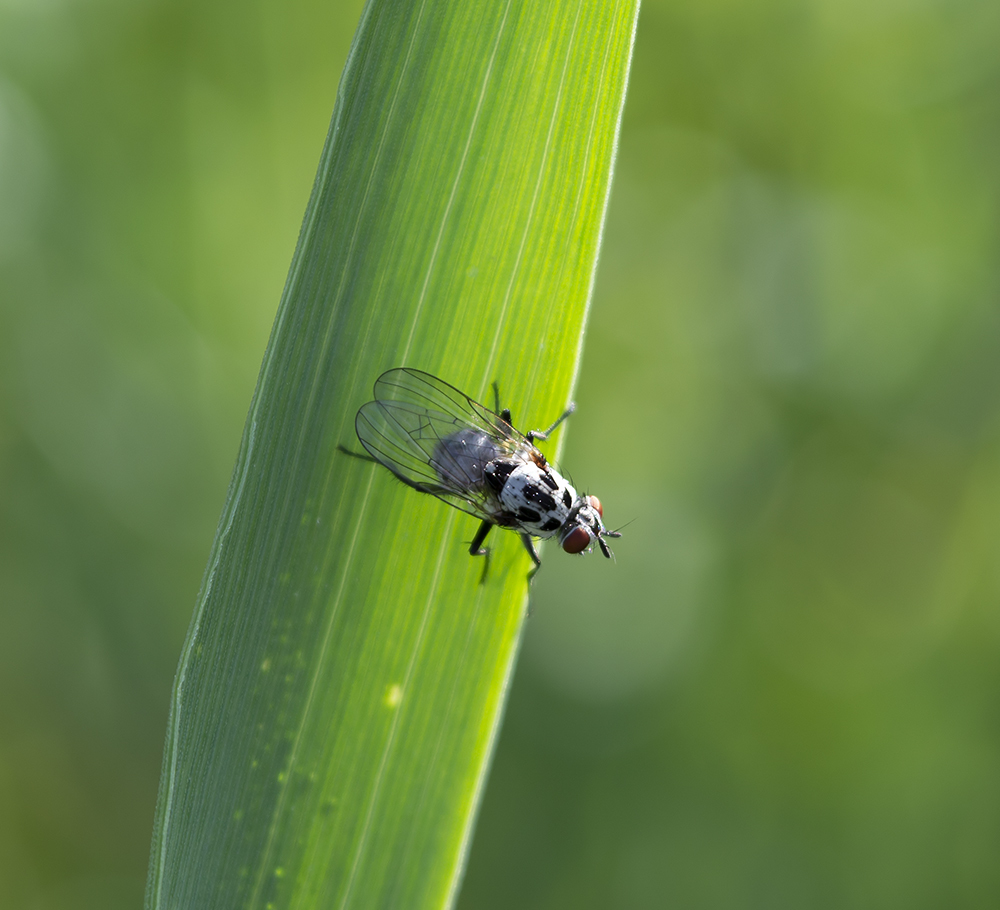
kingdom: Animalia
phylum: Arthropoda
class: Insecta
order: Diptera
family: Anthomyiidae
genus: Anthomyia
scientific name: Anthomyia pluvialis
